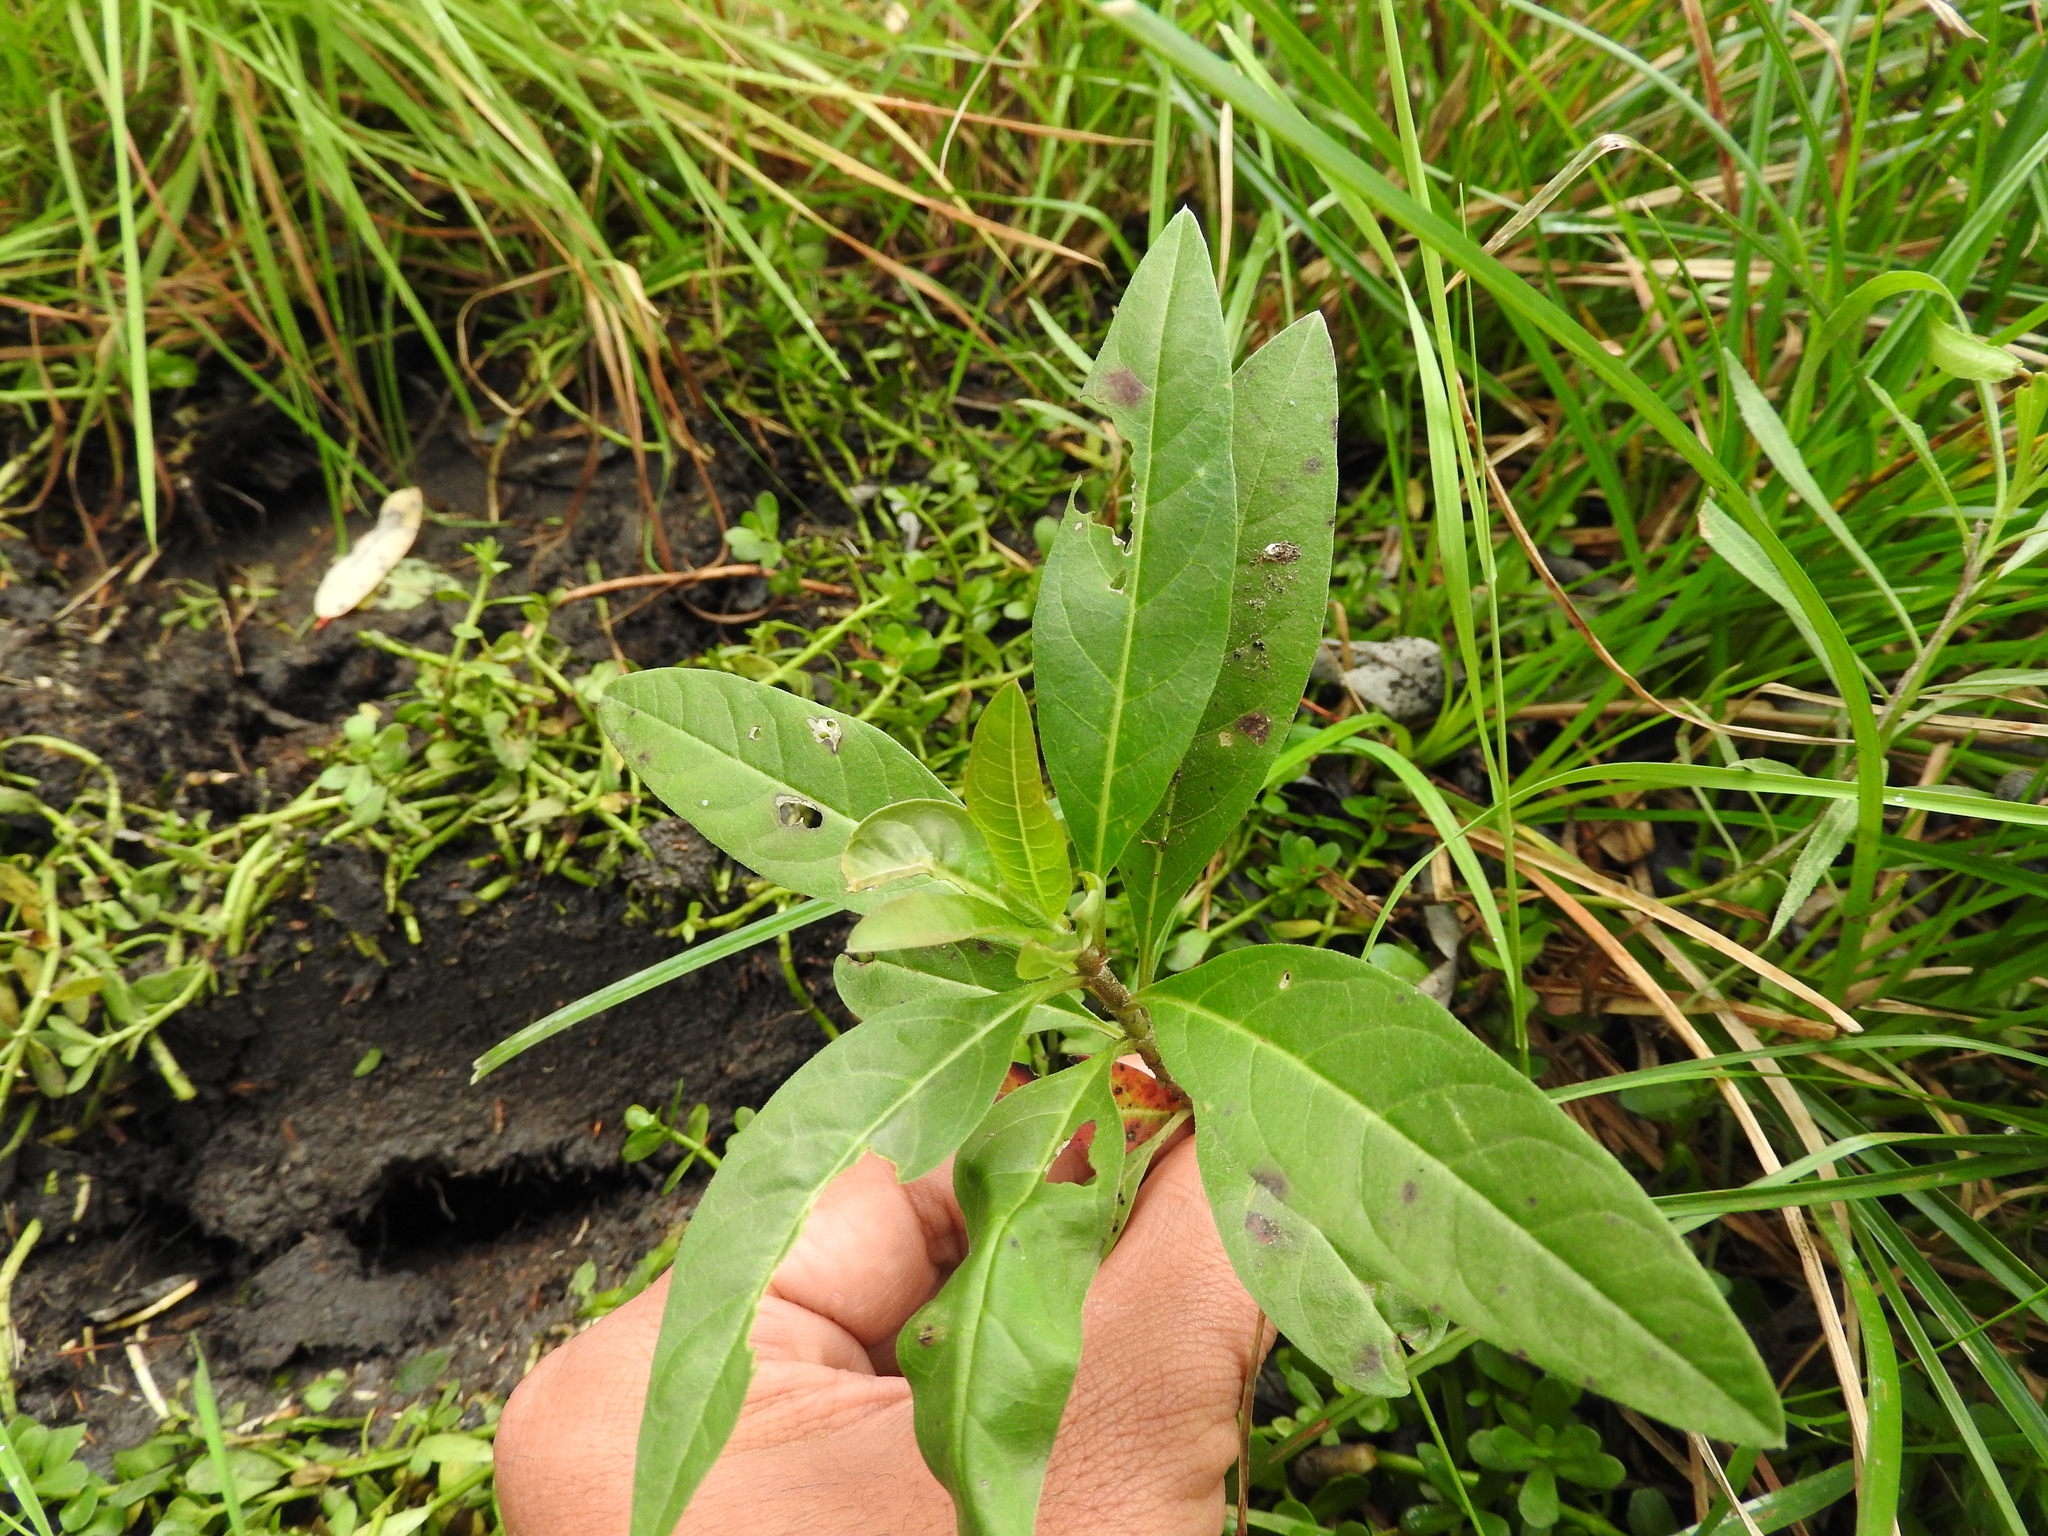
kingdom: Plantae
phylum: Tracheophyta
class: Magnoliopsida
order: Gentianales
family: Apocynaceae
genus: Asclepias
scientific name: Asclepias curassavica
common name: Bloodflower
